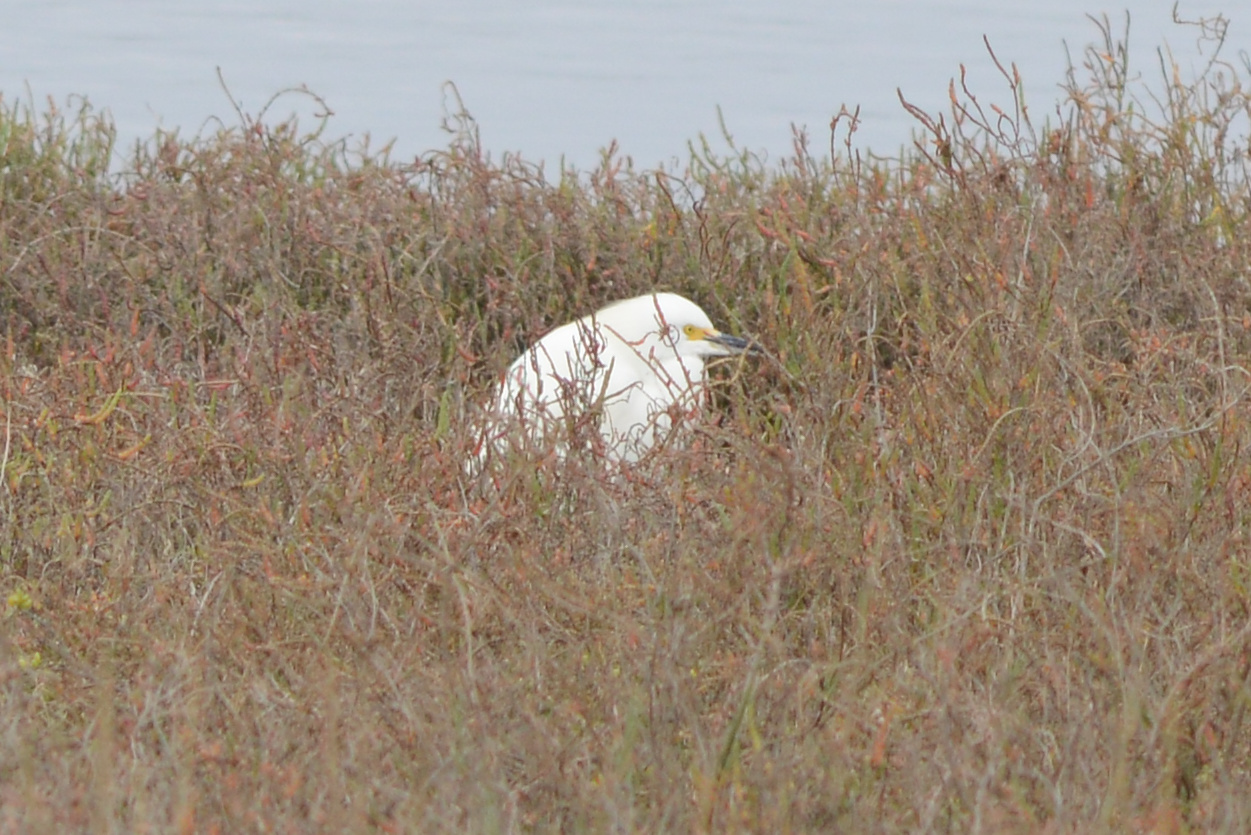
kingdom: Animalia
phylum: Chordata
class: Aves
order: Pelecaniformes
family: Ardeidae
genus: Egretta
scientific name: Egretta thula
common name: Snowy egret
